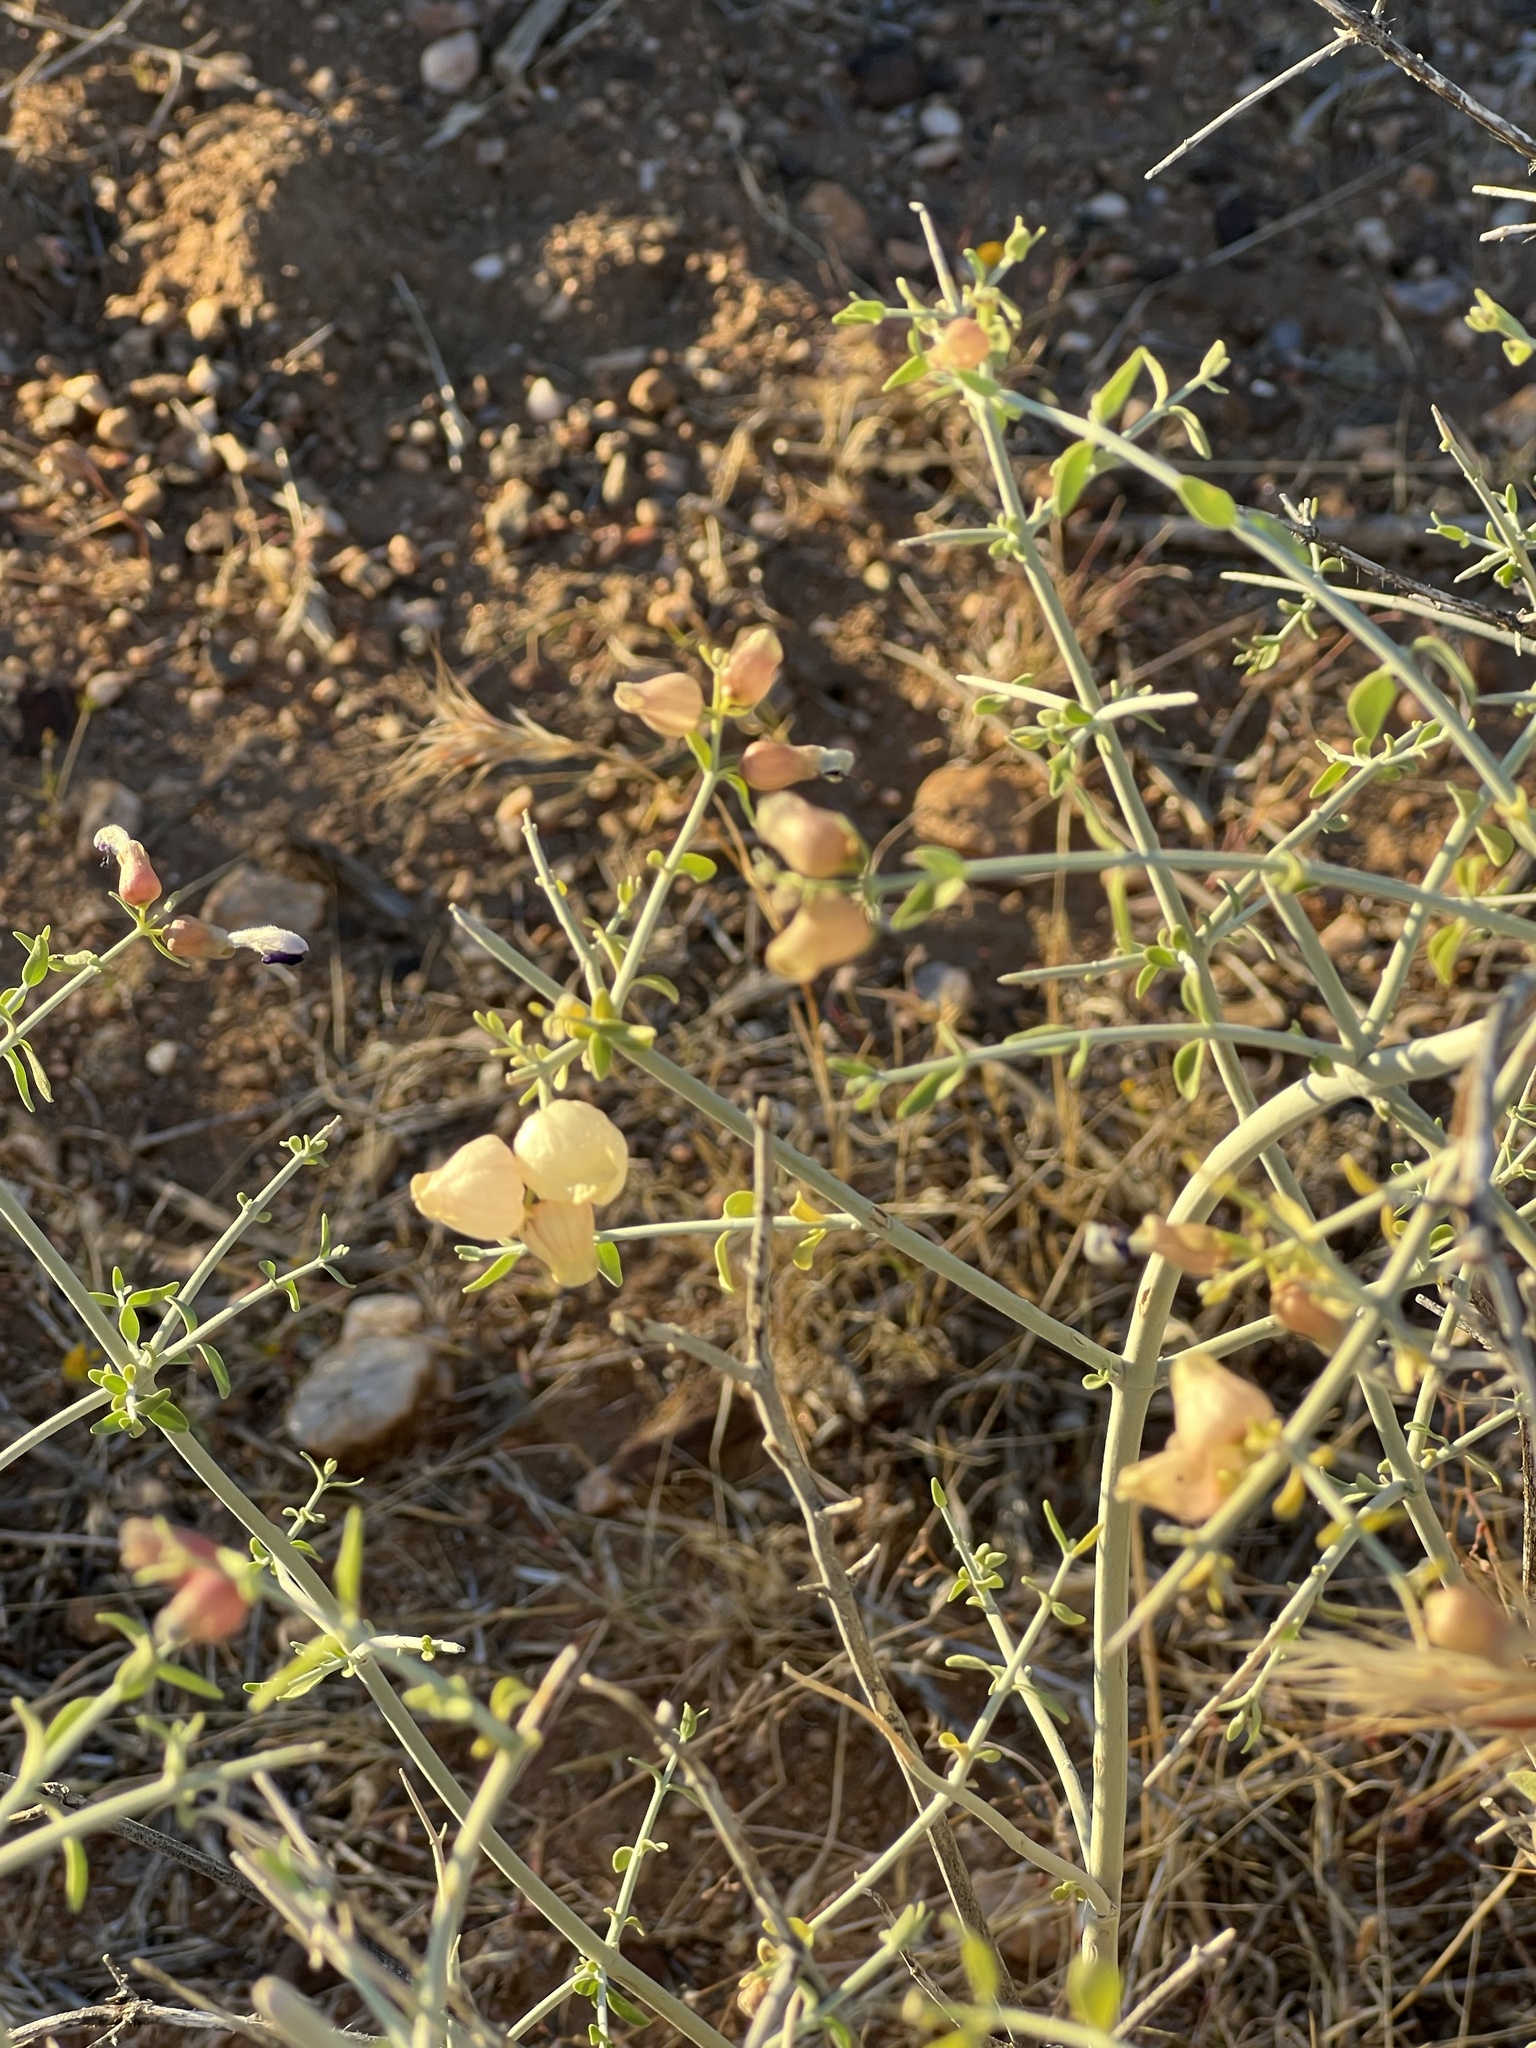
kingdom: Plantae
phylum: Tracheophyta
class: Magnoliopsida
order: Lamiales
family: Lamiaceae
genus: Scutellaria
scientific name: Scutellaria mexicana
